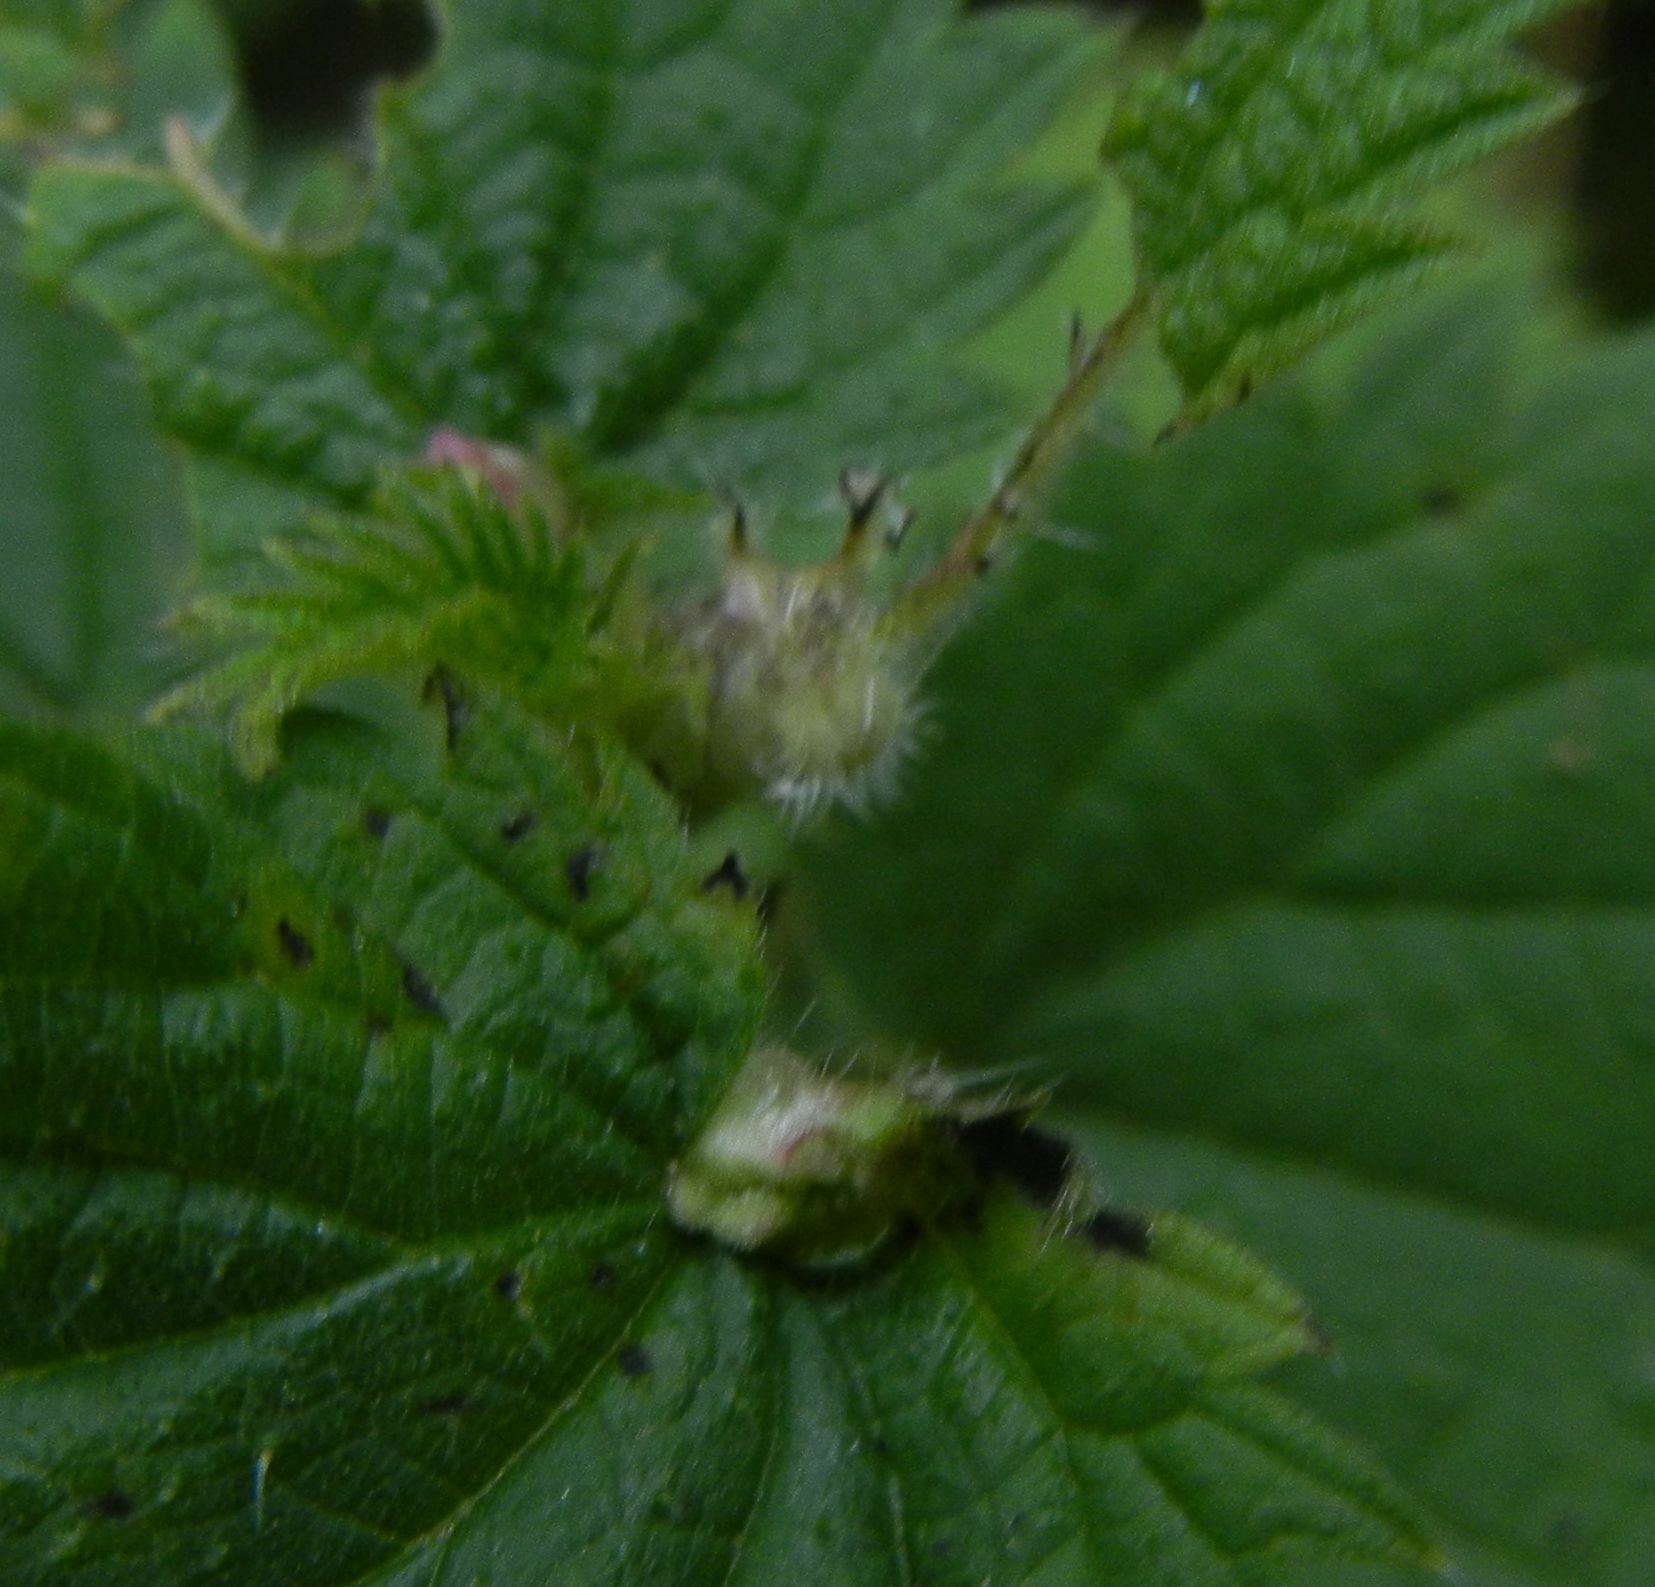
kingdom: Animalia
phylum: Arthropoda
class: Insecta
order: Diptera
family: Cecidomyiidae
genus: Dasineura
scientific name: Dasineura urticae
